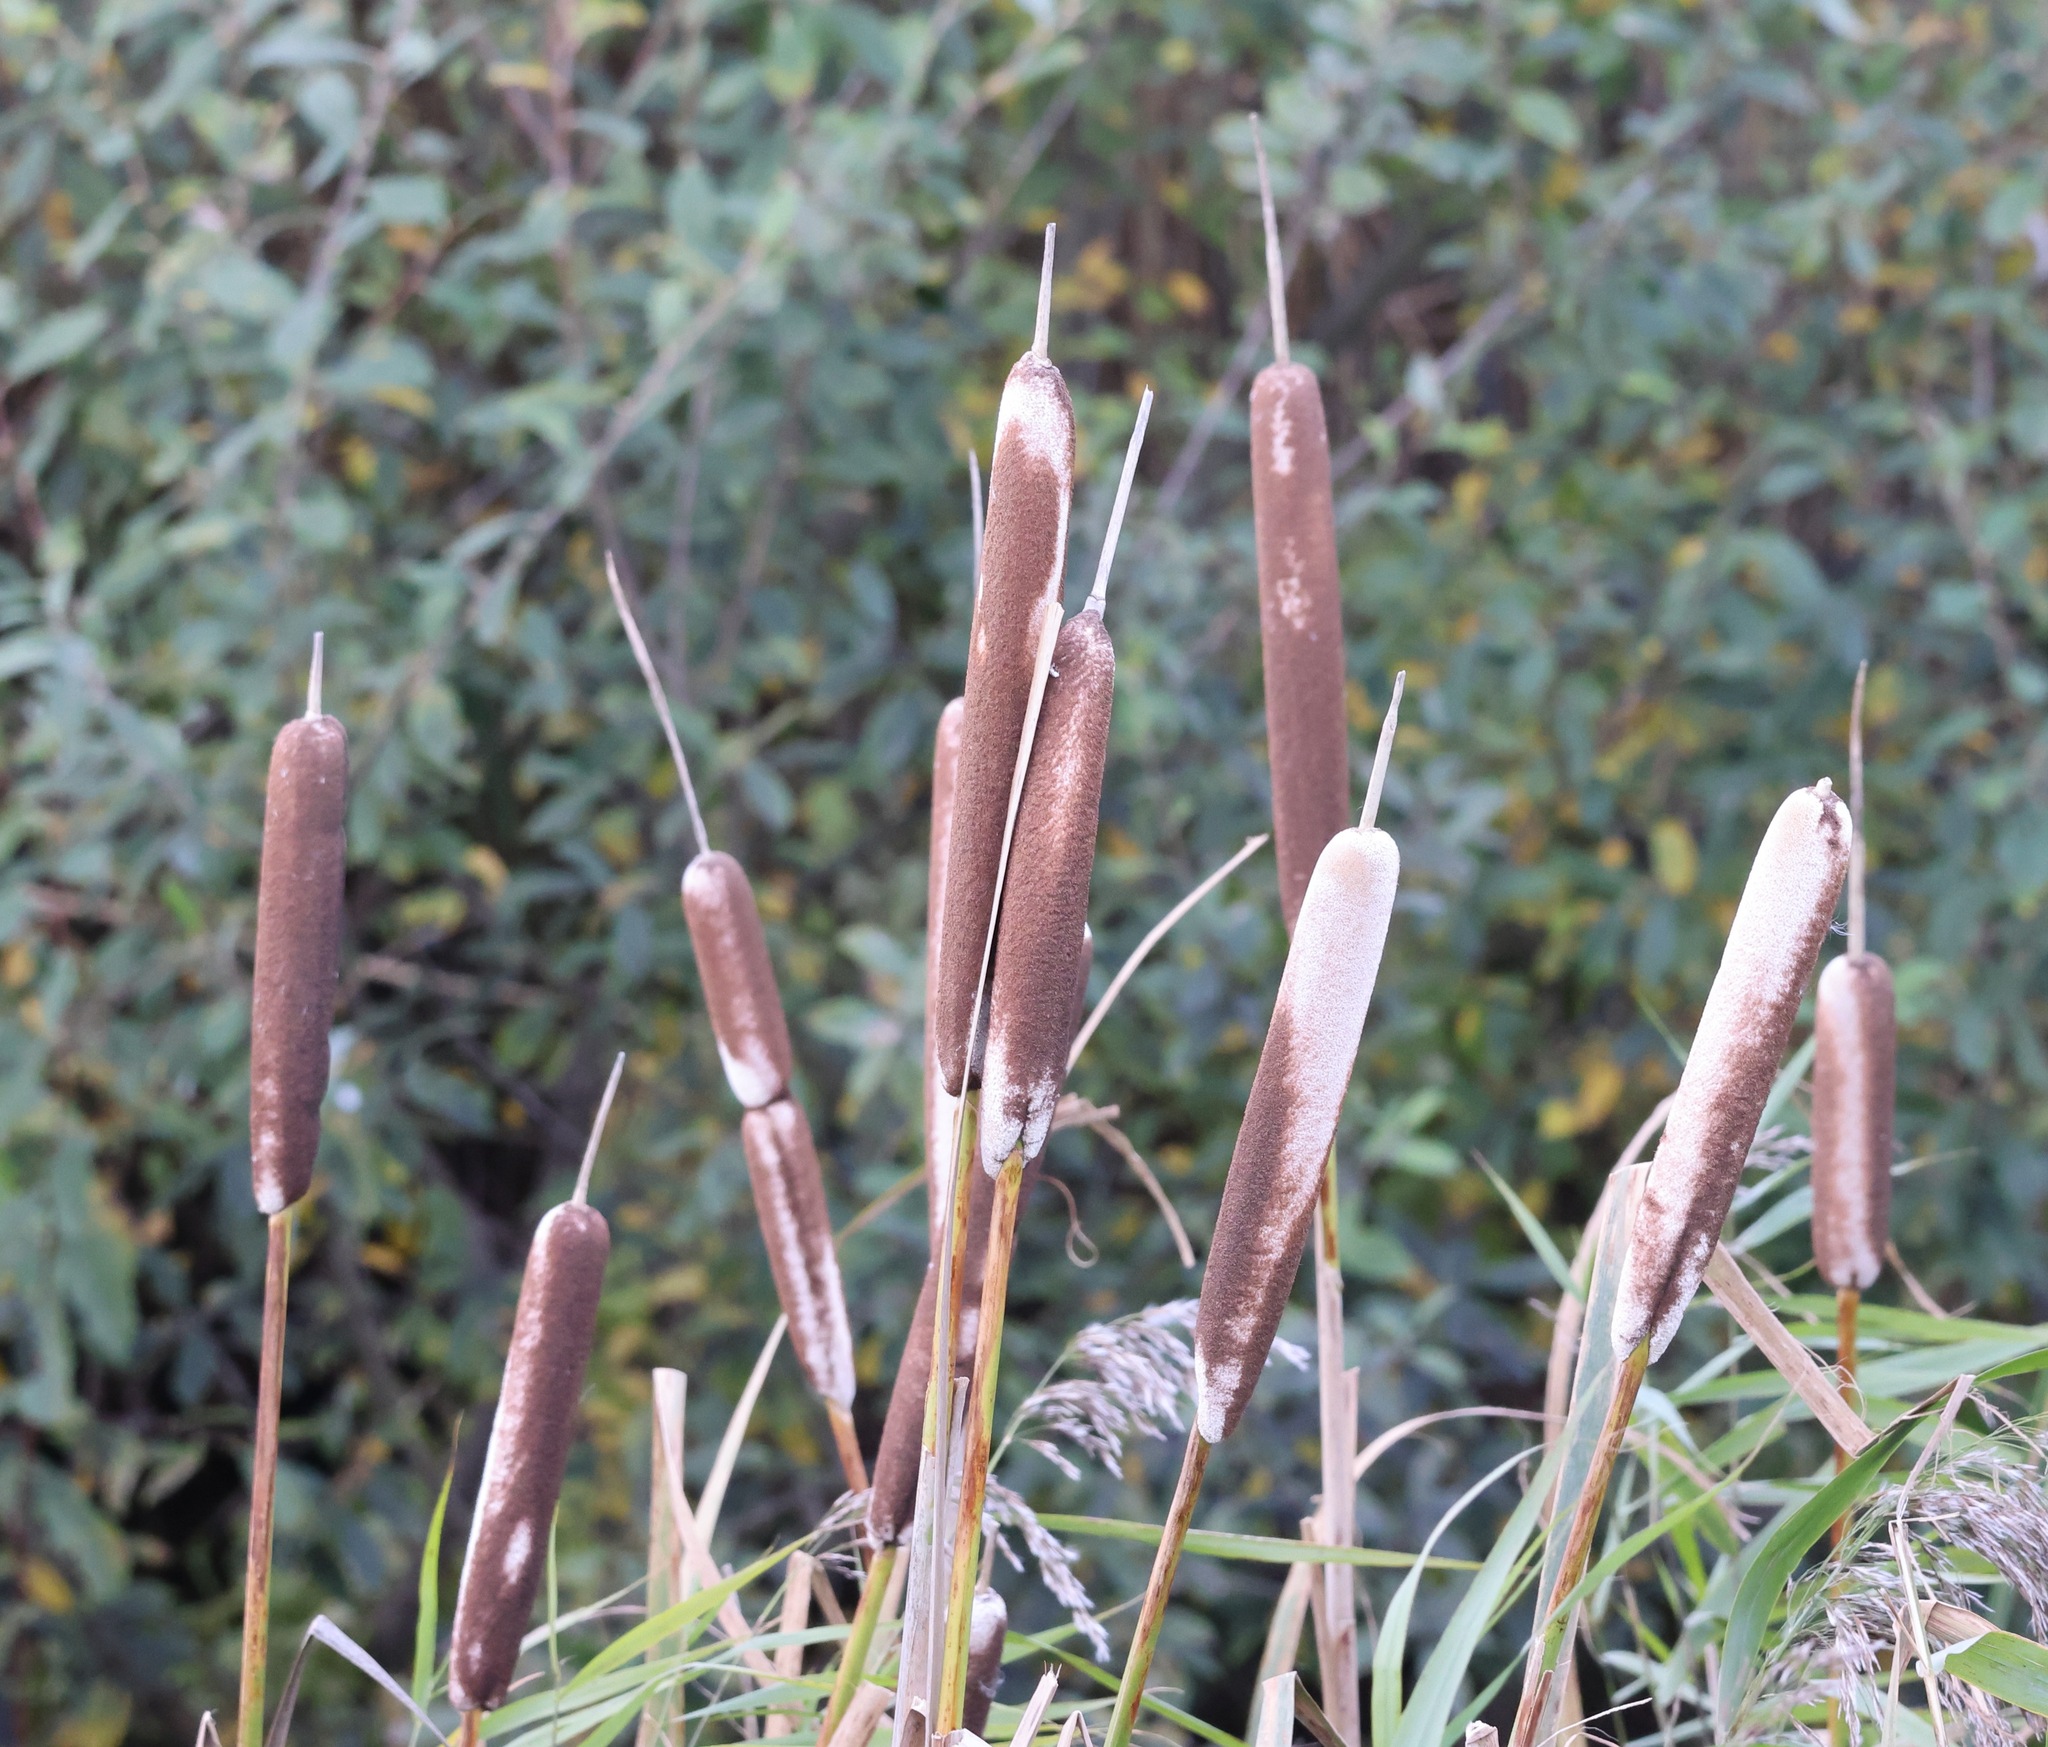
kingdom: Plantae
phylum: Tracheophyta
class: Liliopsida
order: Poales
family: Typhaceae
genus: Typha
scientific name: Typha latifolia
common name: Broadleaf cattail
